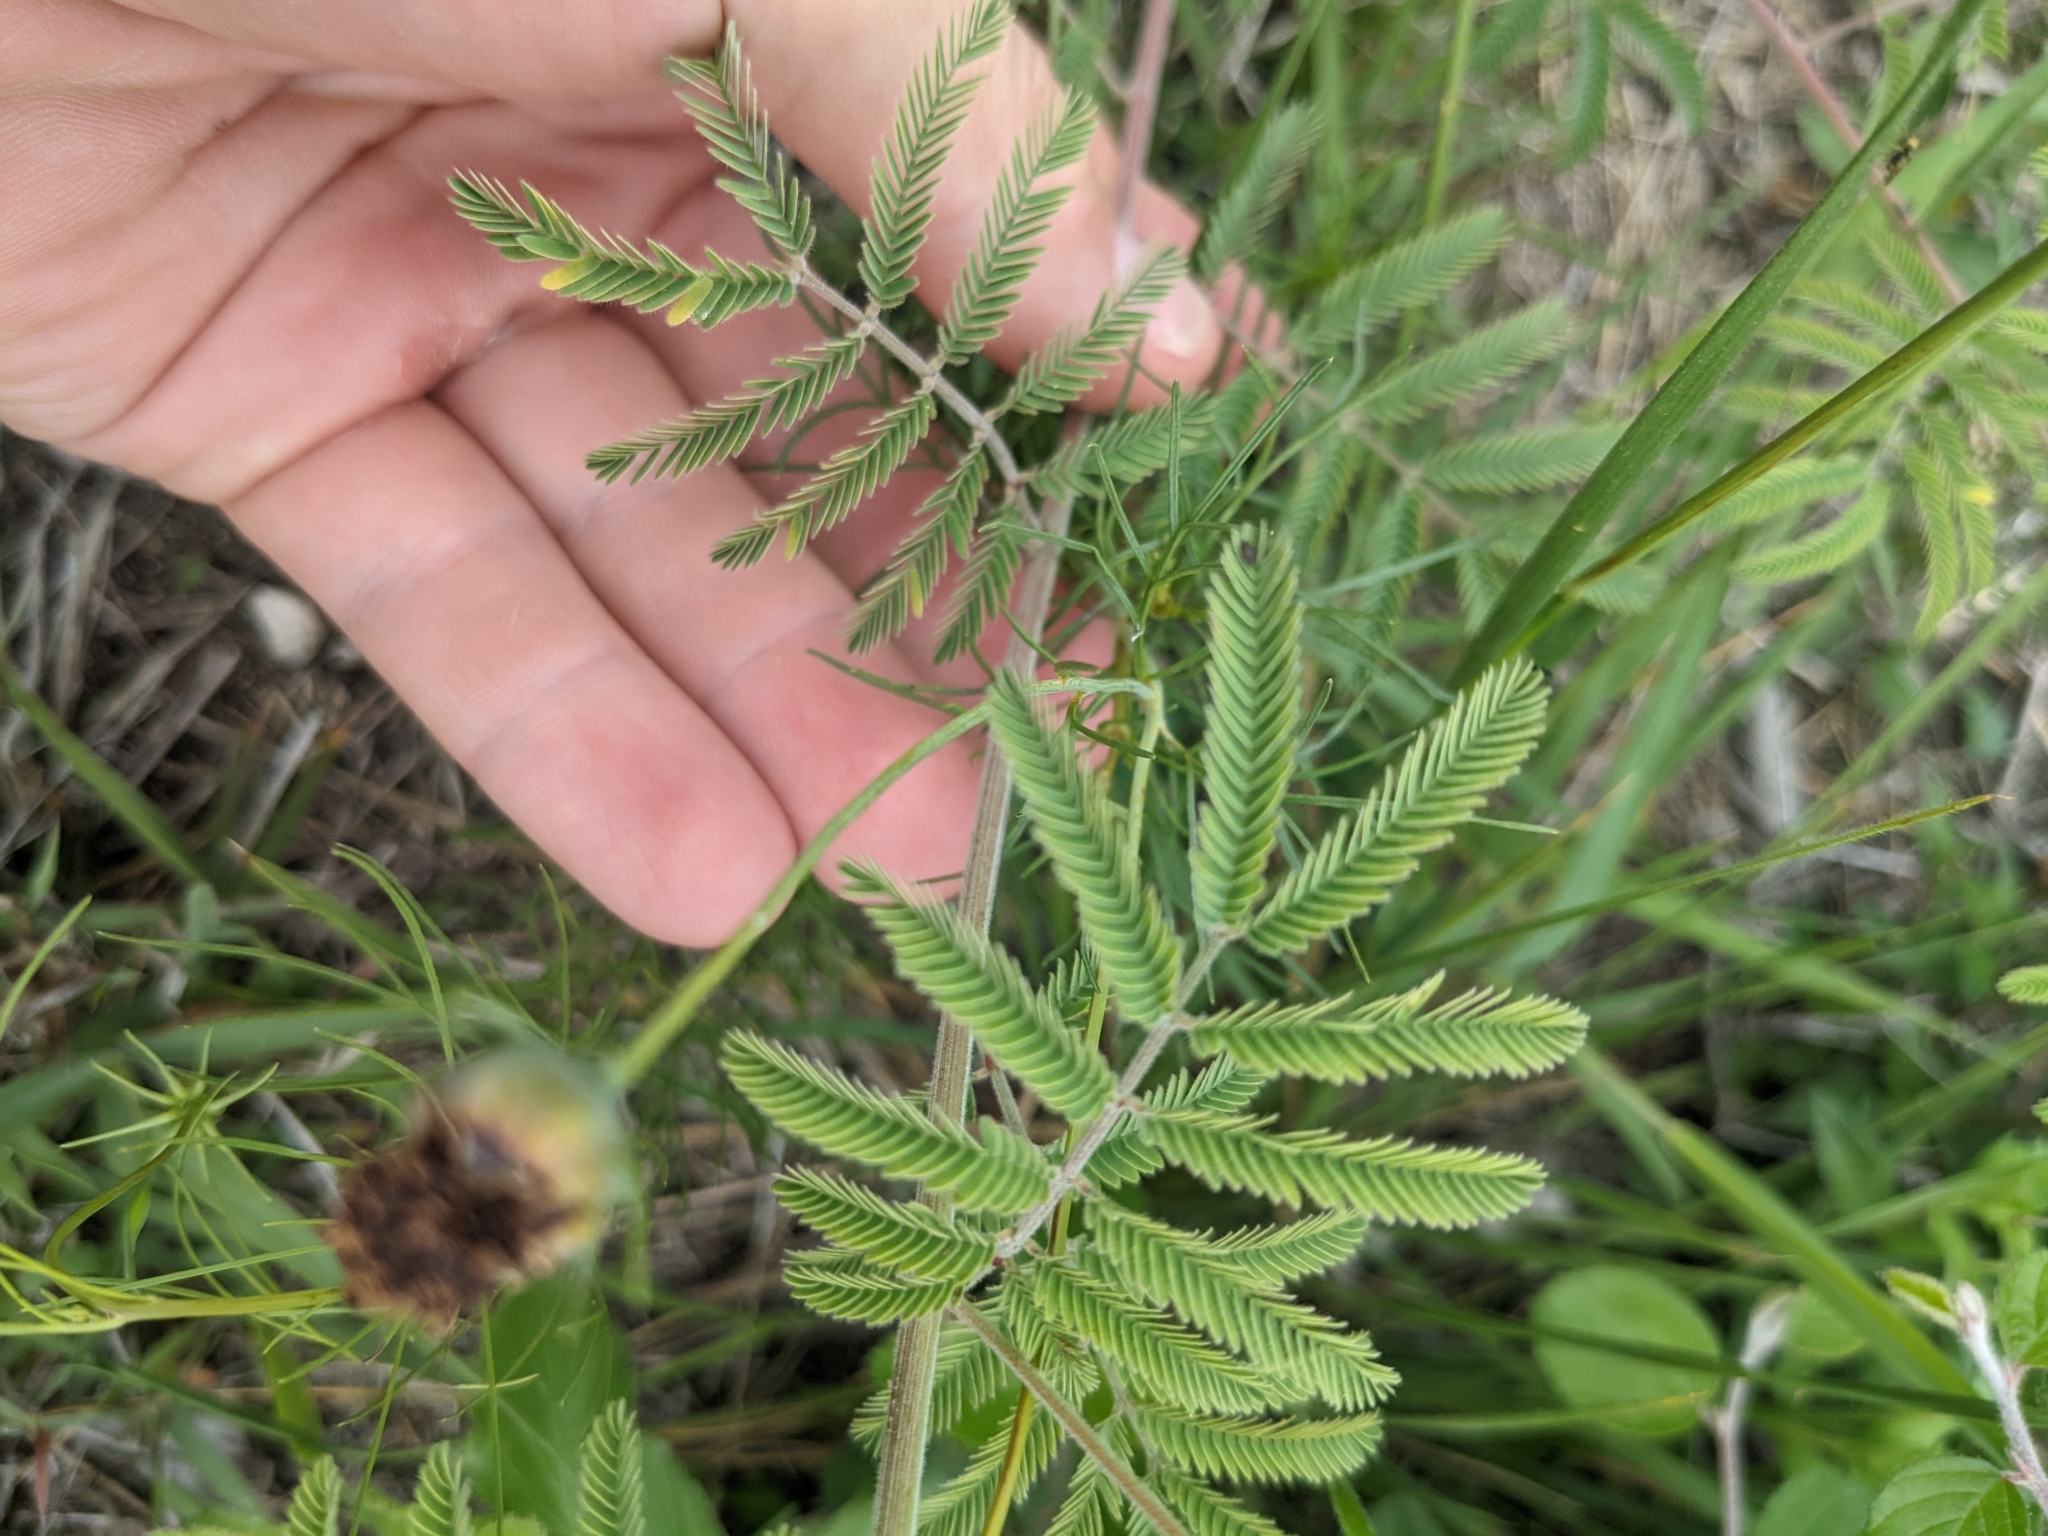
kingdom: Plantae
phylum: Tracheophyta
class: Magnoliopsida
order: Fabales
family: Fabaceae
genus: Desmanthus
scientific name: Desmanthus velutinus
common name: Velvet bundle-flower
